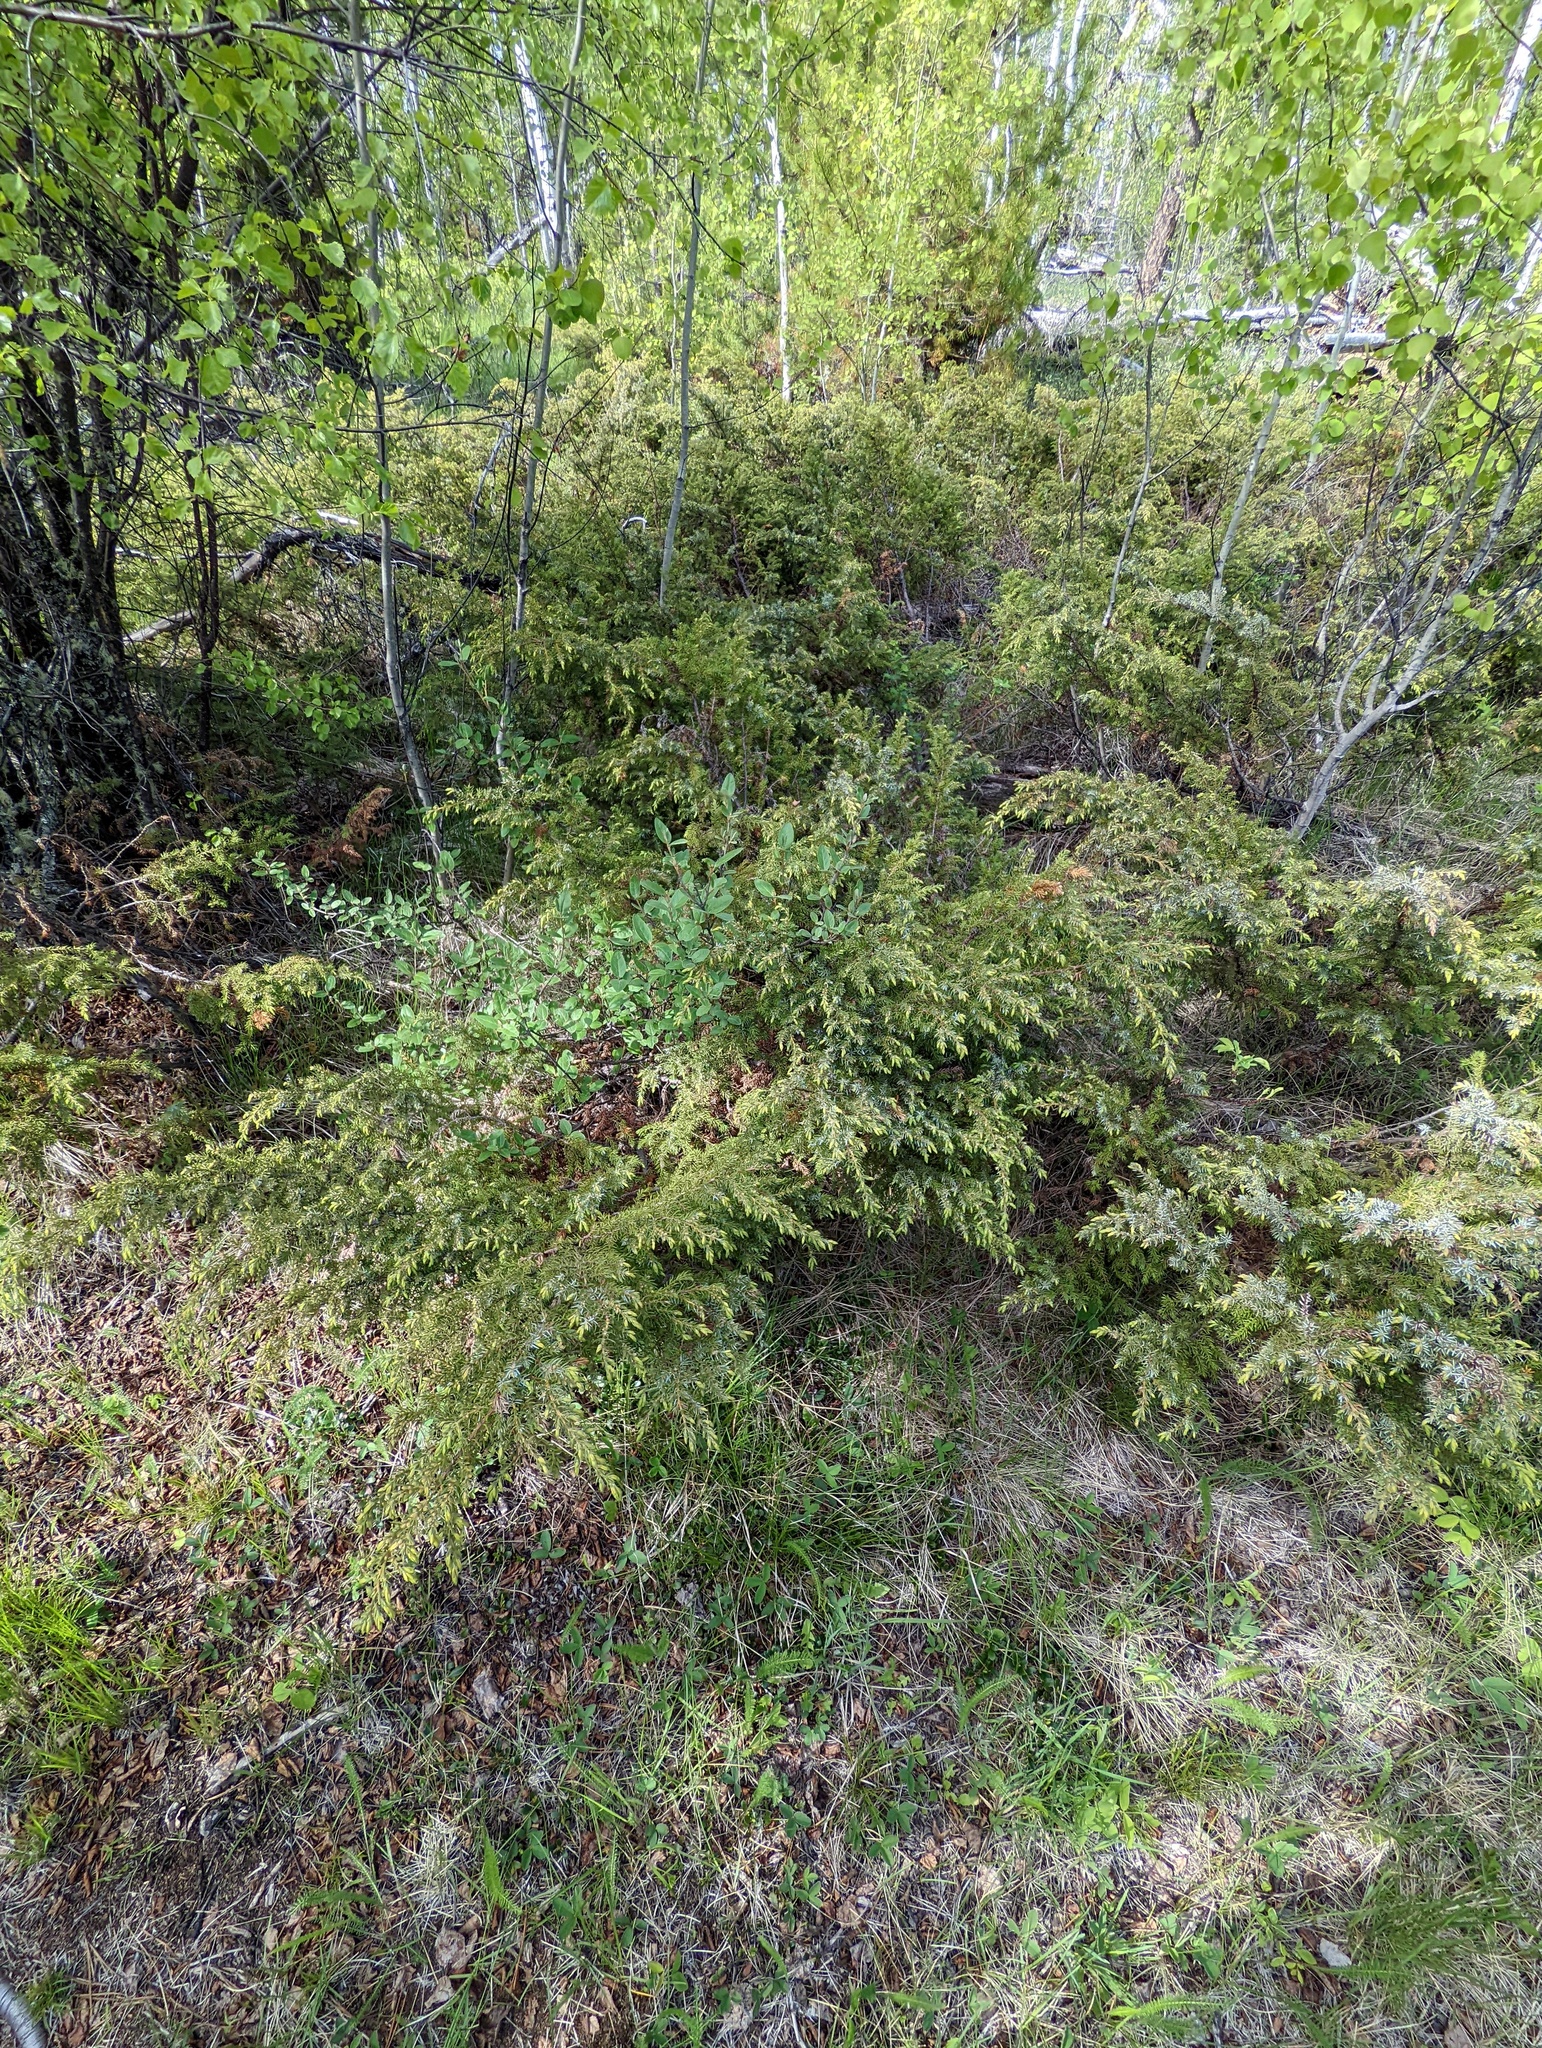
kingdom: Plantae
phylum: Tracheophyta
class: Pinopsida
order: Pinales
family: Cupressaceae
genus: Juniperus
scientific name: Juniperus communis
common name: Common juniper
